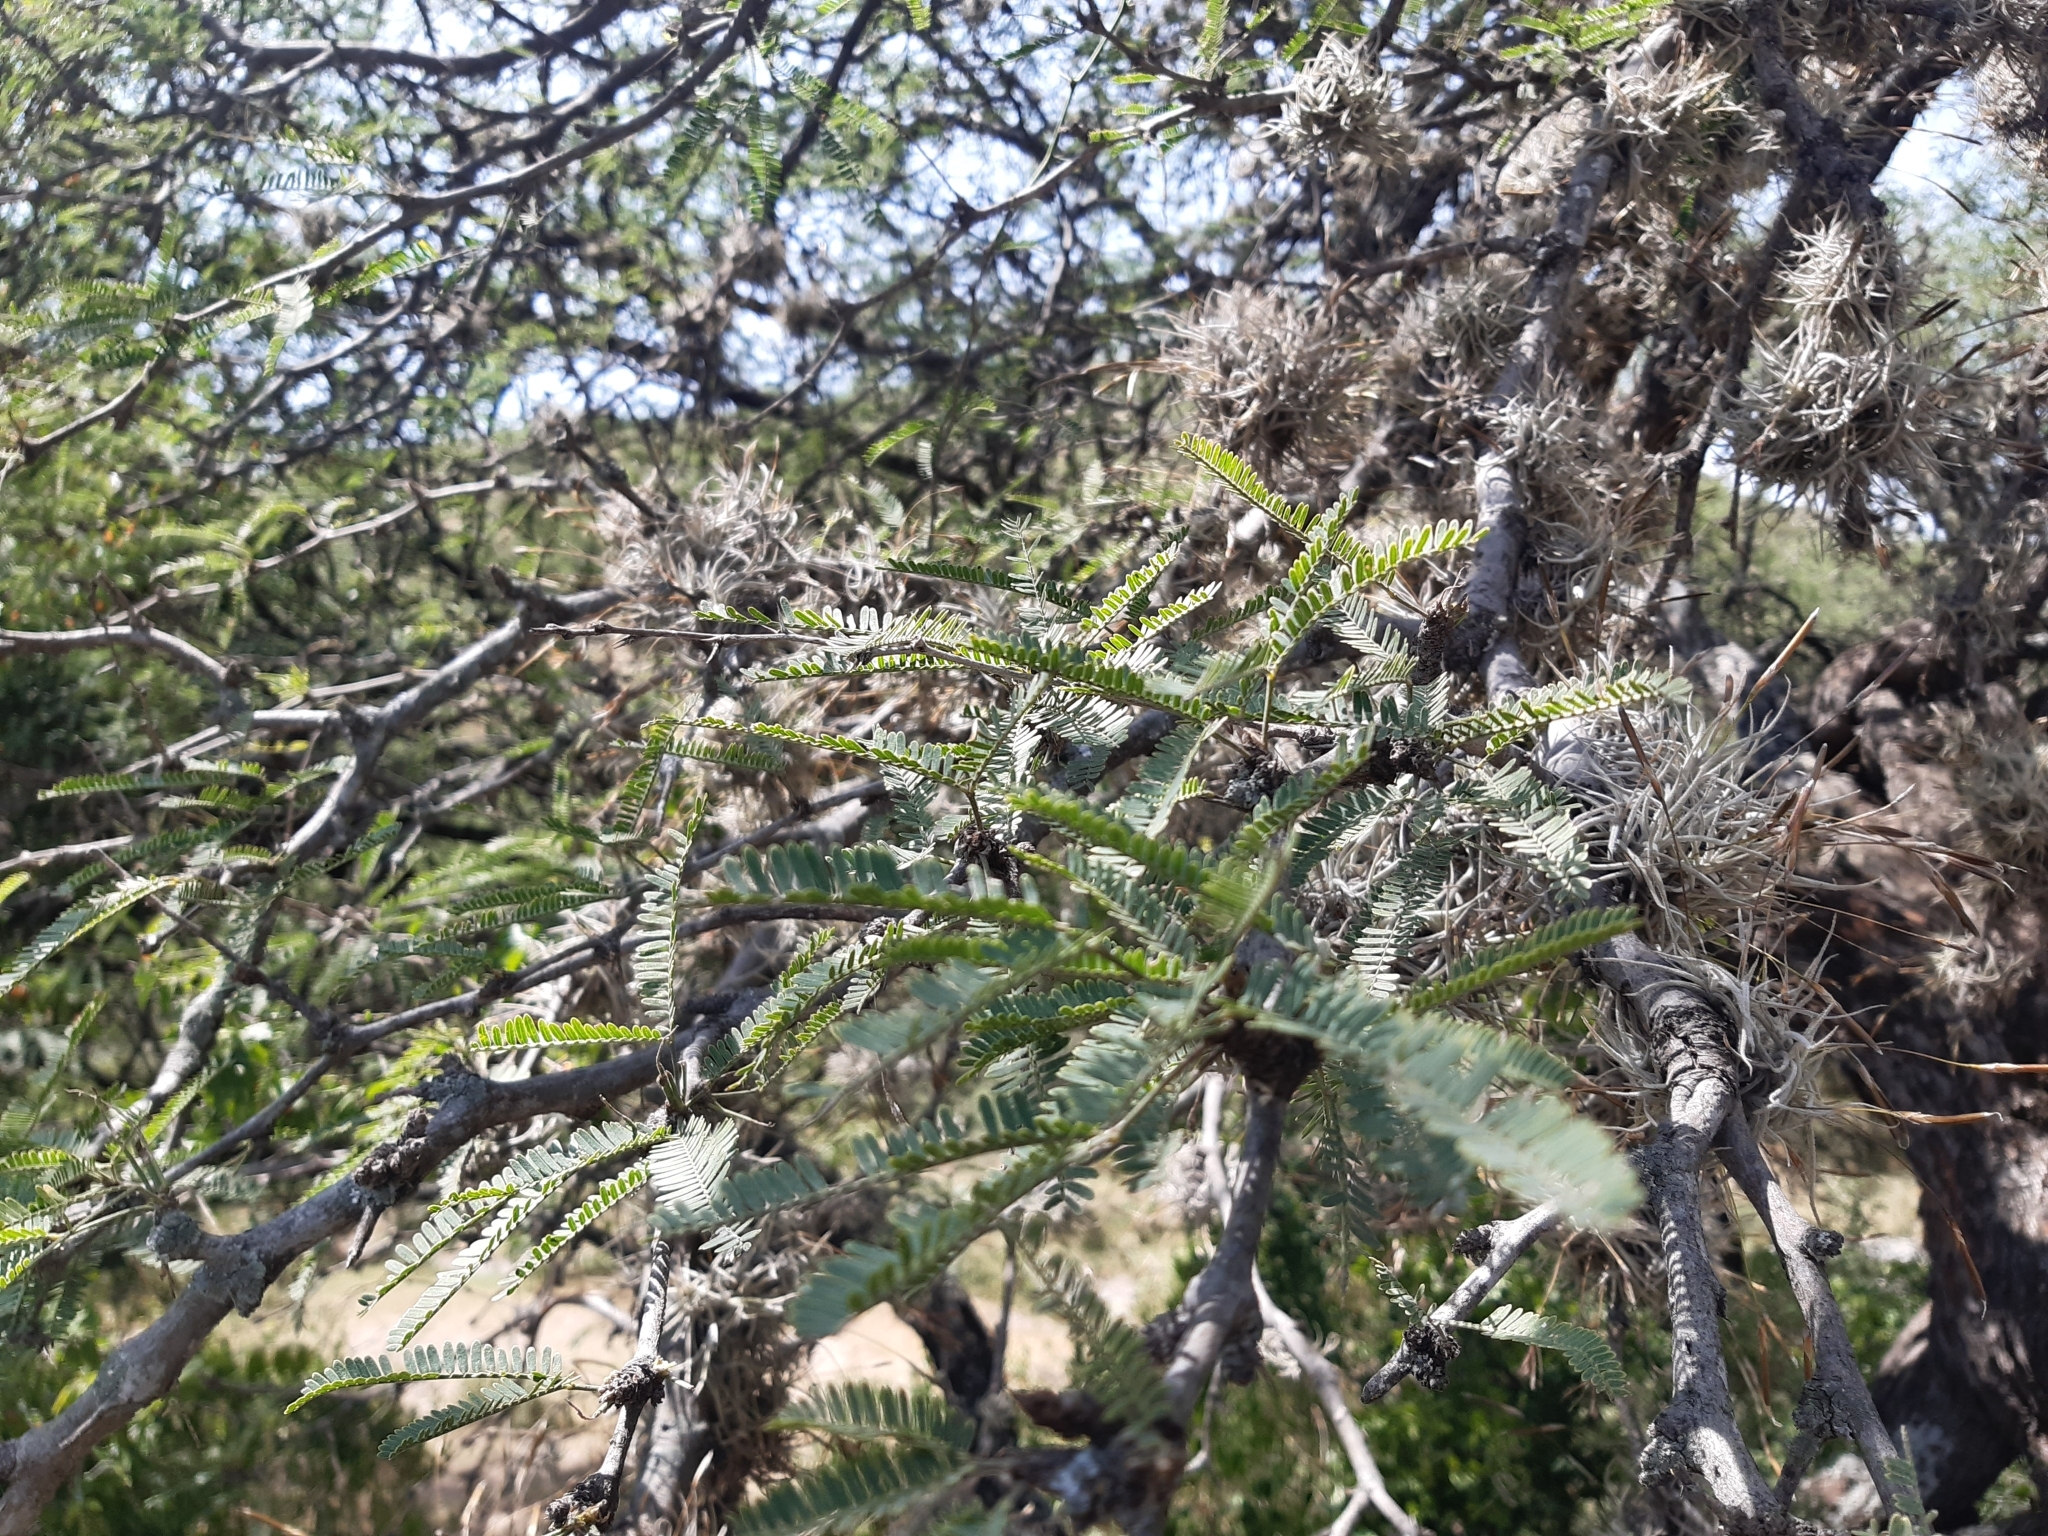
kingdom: Plantae
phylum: Tracheophyta
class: Magnoliopsida
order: Fabales
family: Fabaceae
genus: Prosopis
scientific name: Prosopis laevigata
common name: Smooth mesquite
